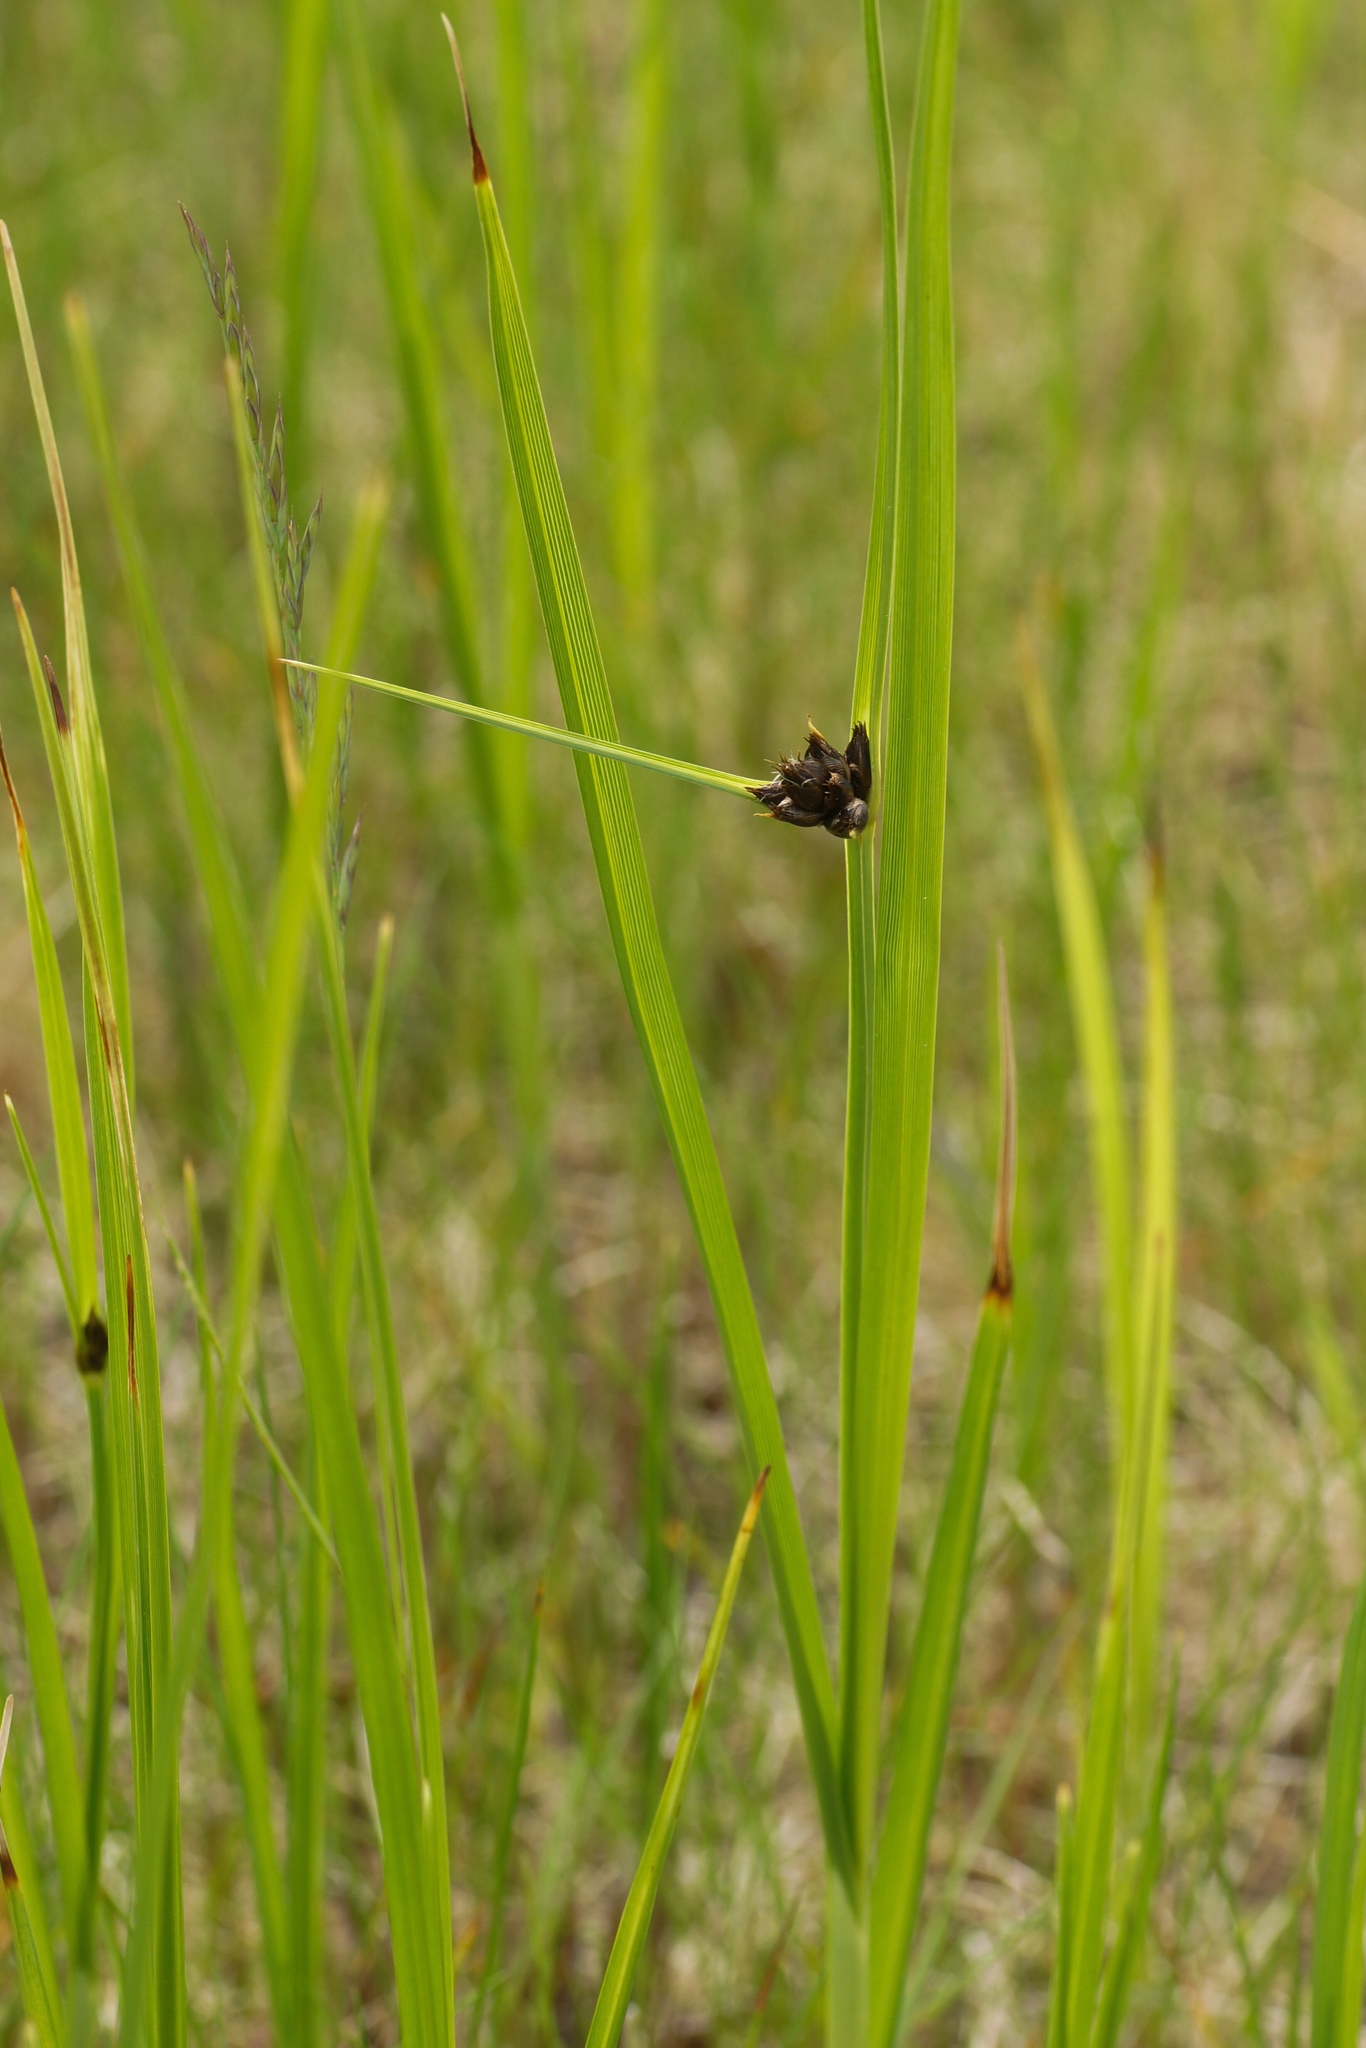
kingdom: Plantae
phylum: Tracheophyta
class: Liliopsida
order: Poales
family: Cyperaceae
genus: Bolboschoenus
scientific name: Bolboschoenus maritimus
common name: Sea club-rush
